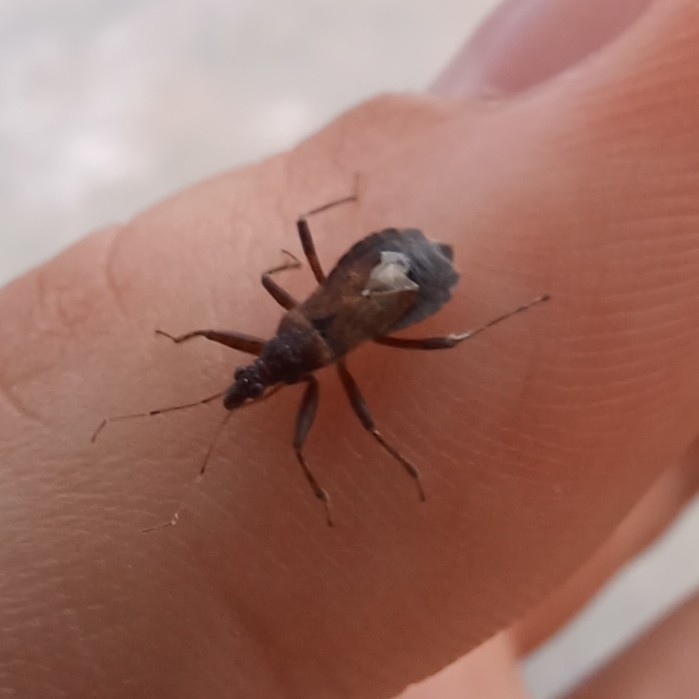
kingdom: Animalia
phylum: Arthropoda
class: Insecta
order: Hemiptera
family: Nabidae
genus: Himacerus
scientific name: Himacerus mirmicoides
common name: Ant damsel bug
